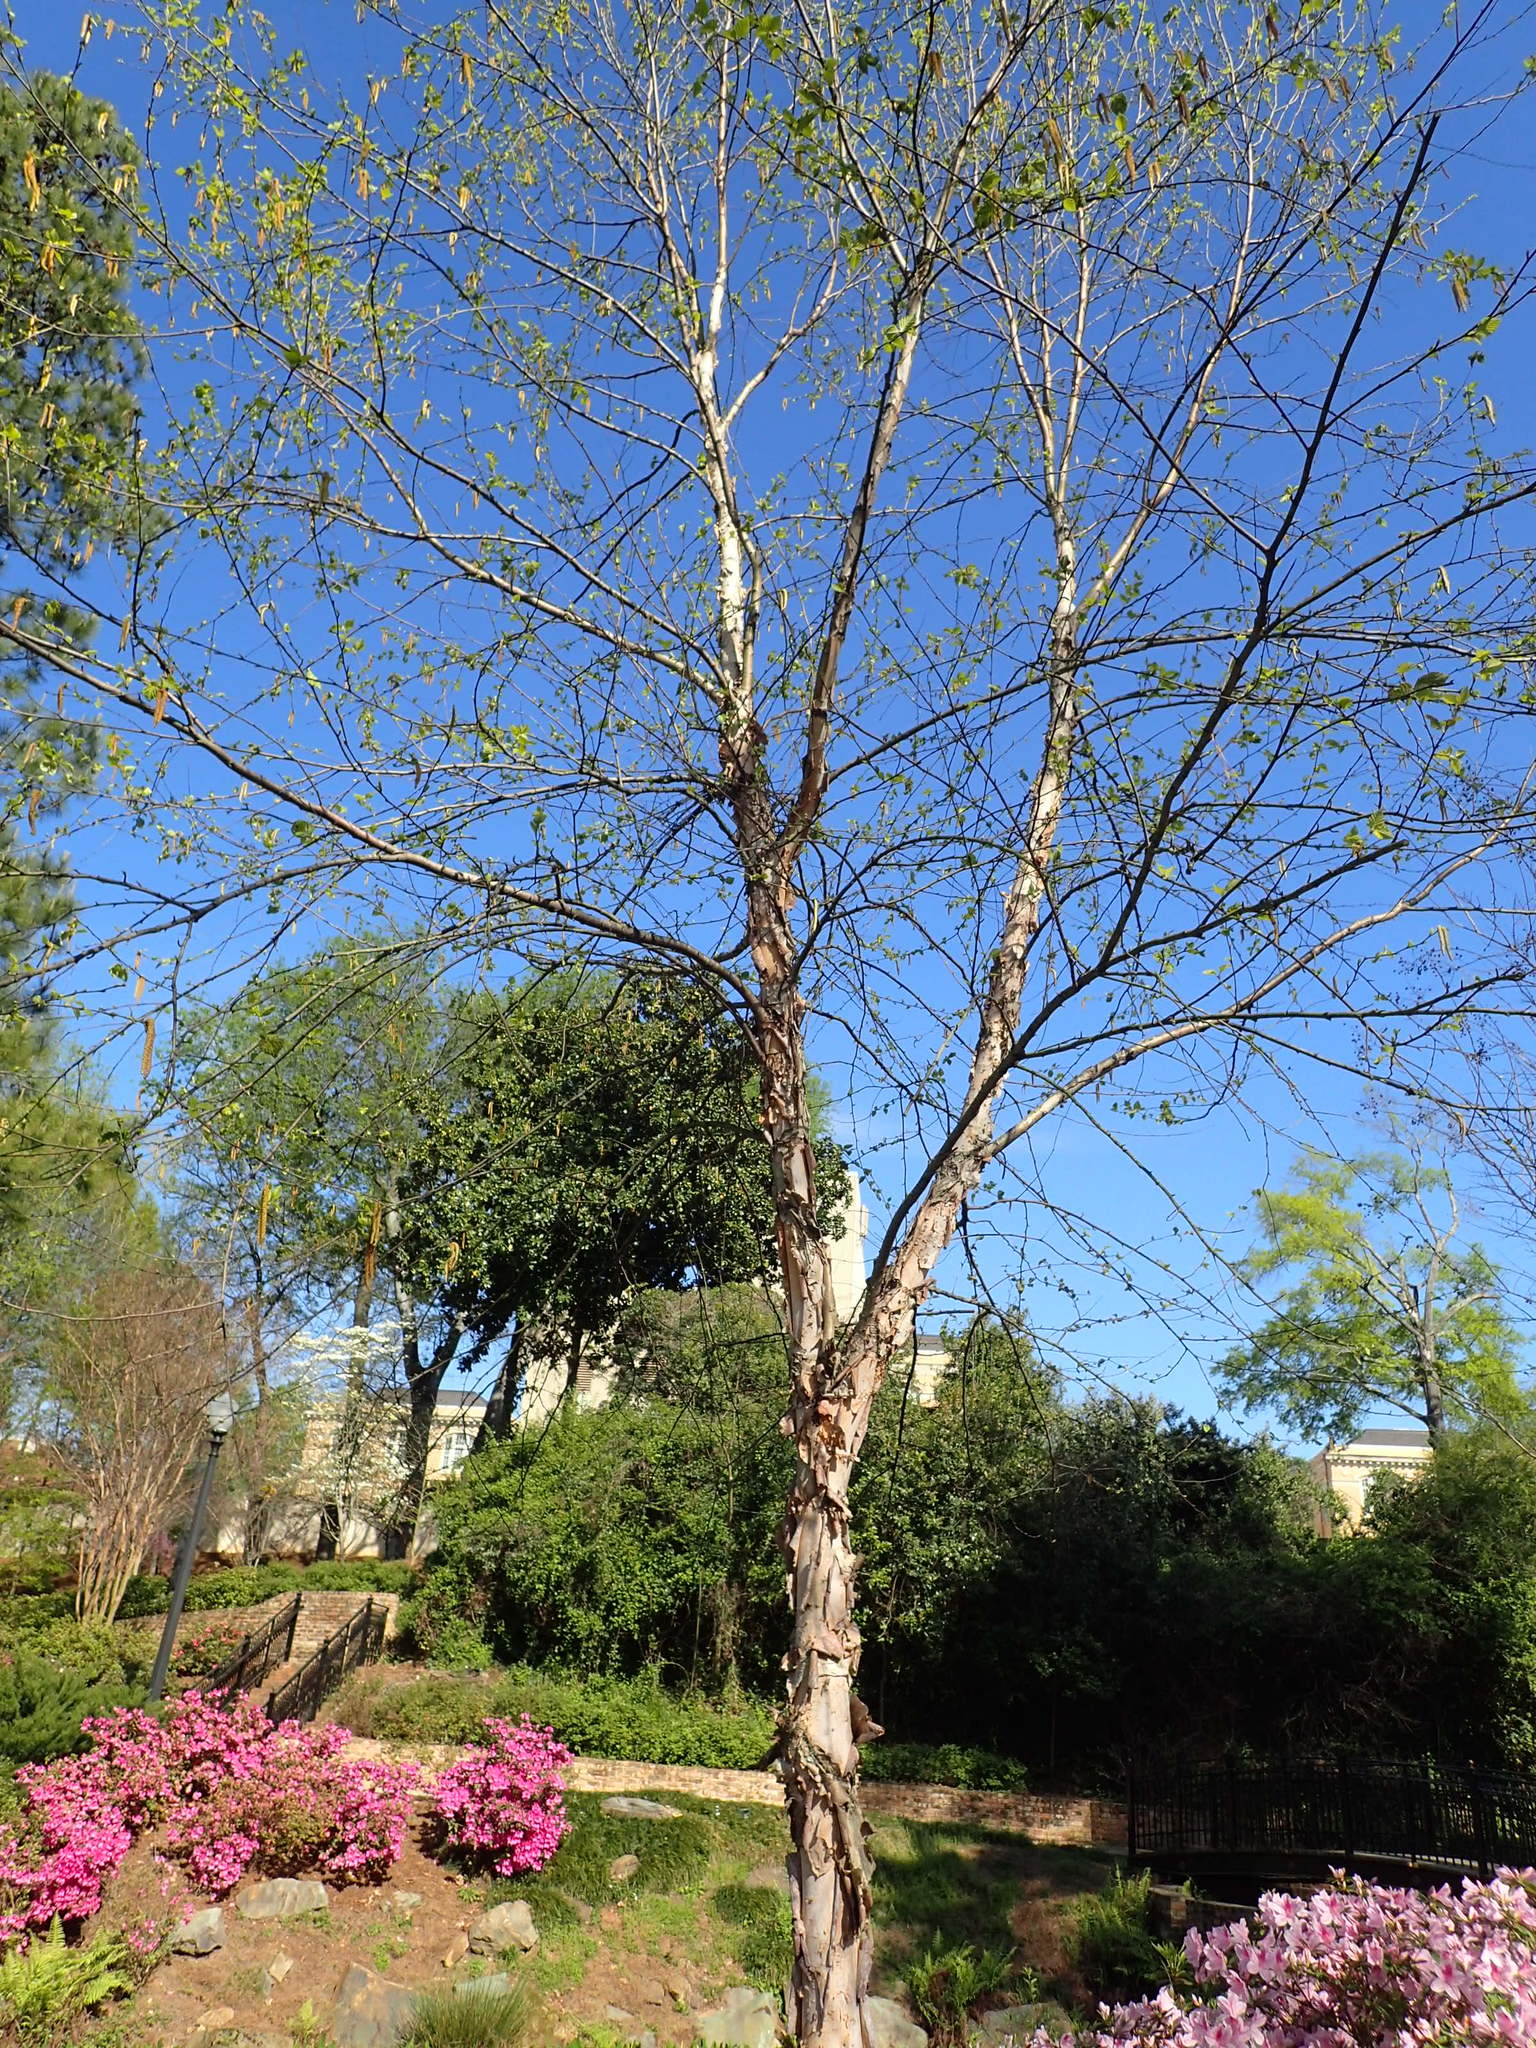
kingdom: Plantae
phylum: Tracheophyta
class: Magnoliopsida
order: Fagales
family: Betulaceae
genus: Betula
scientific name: Betula nigra
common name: Black birch
